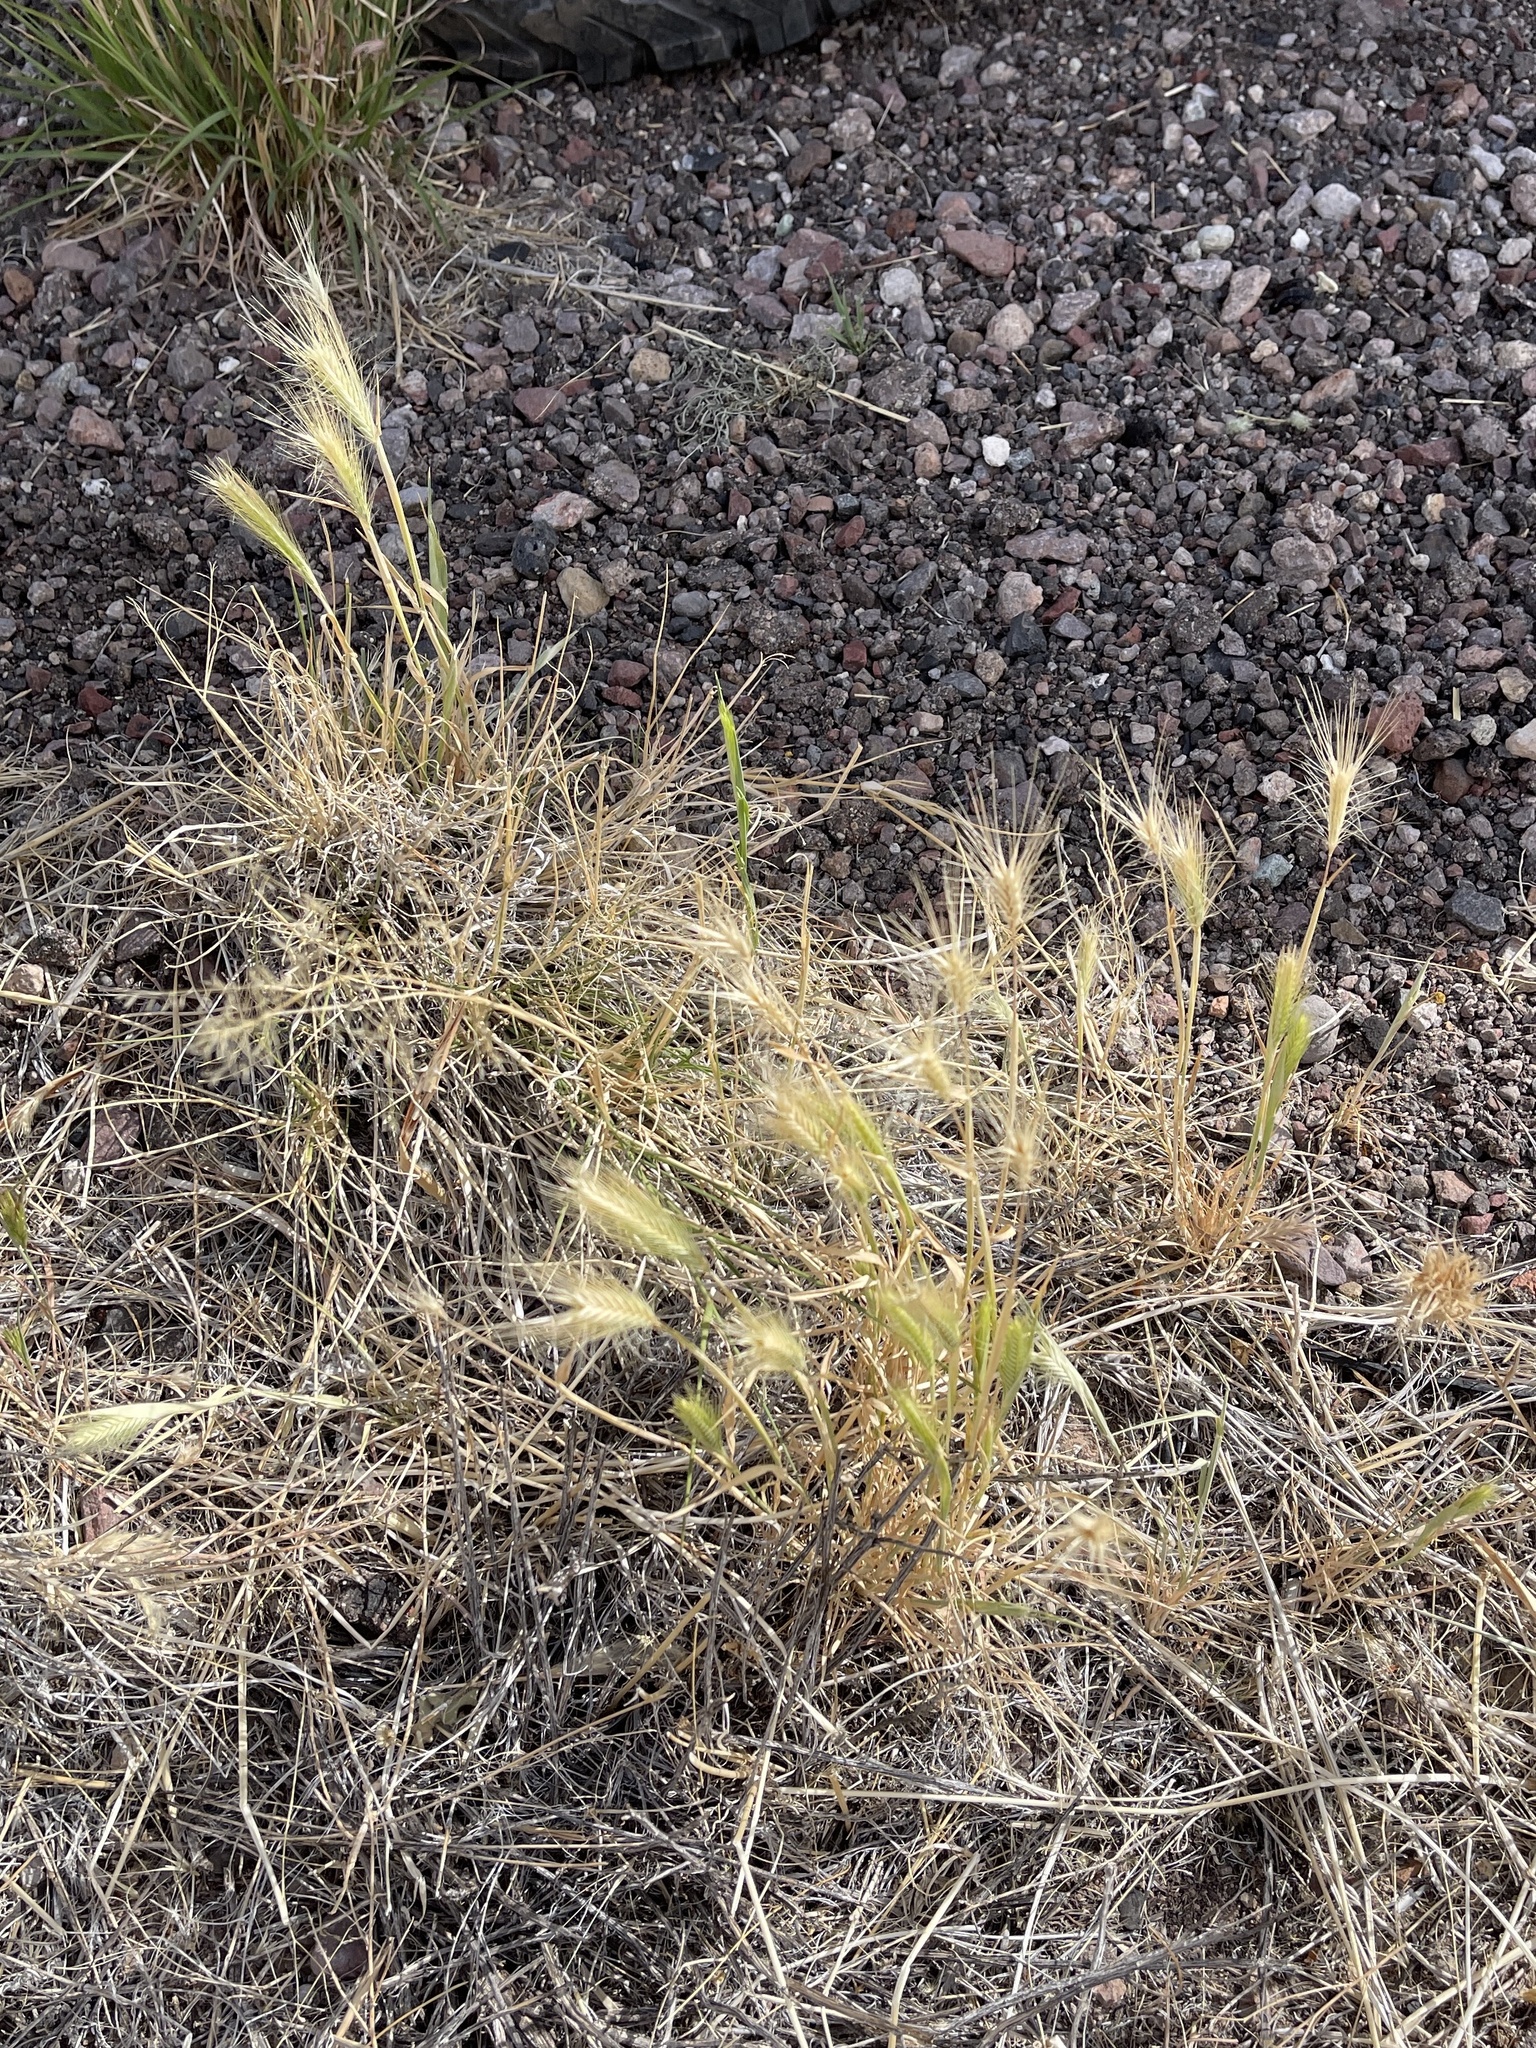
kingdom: Plantae
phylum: Tracheophyta
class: Liliopsida
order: Poales
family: Poaceae
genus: Hordeum
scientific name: Hordeum jubatum
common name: Foxtail barley
